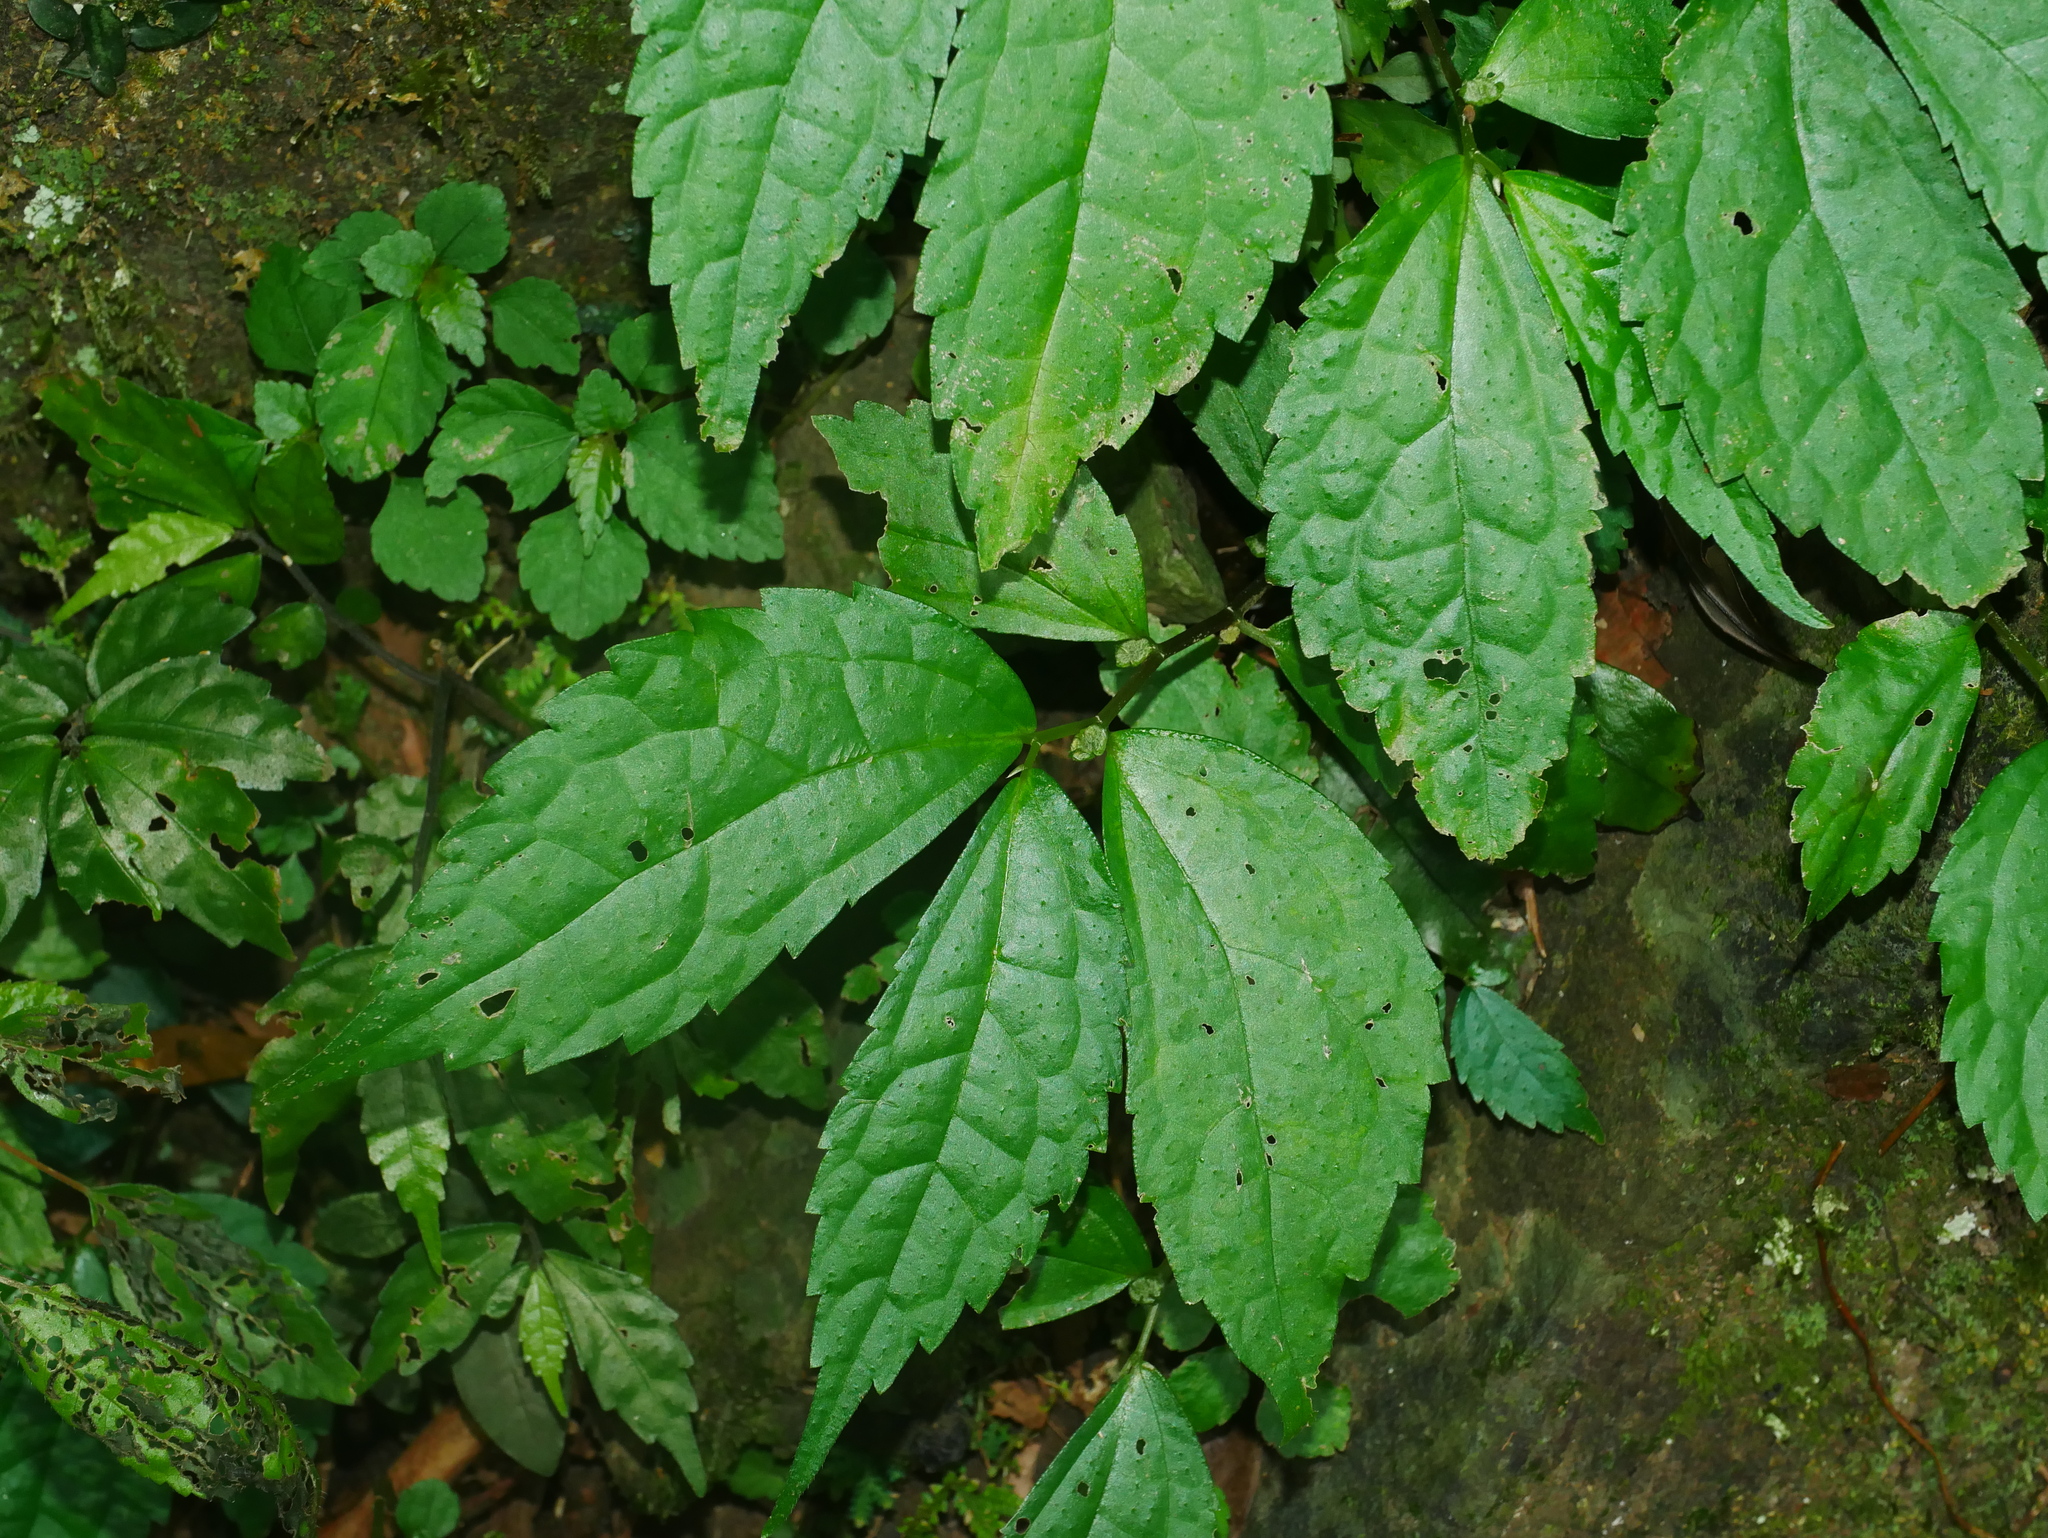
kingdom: Plantae
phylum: Tracheophyta
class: Magnoliopsida
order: Rosales
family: Urticaceae
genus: Elatostema
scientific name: Elatostema cyrtandrifolium
